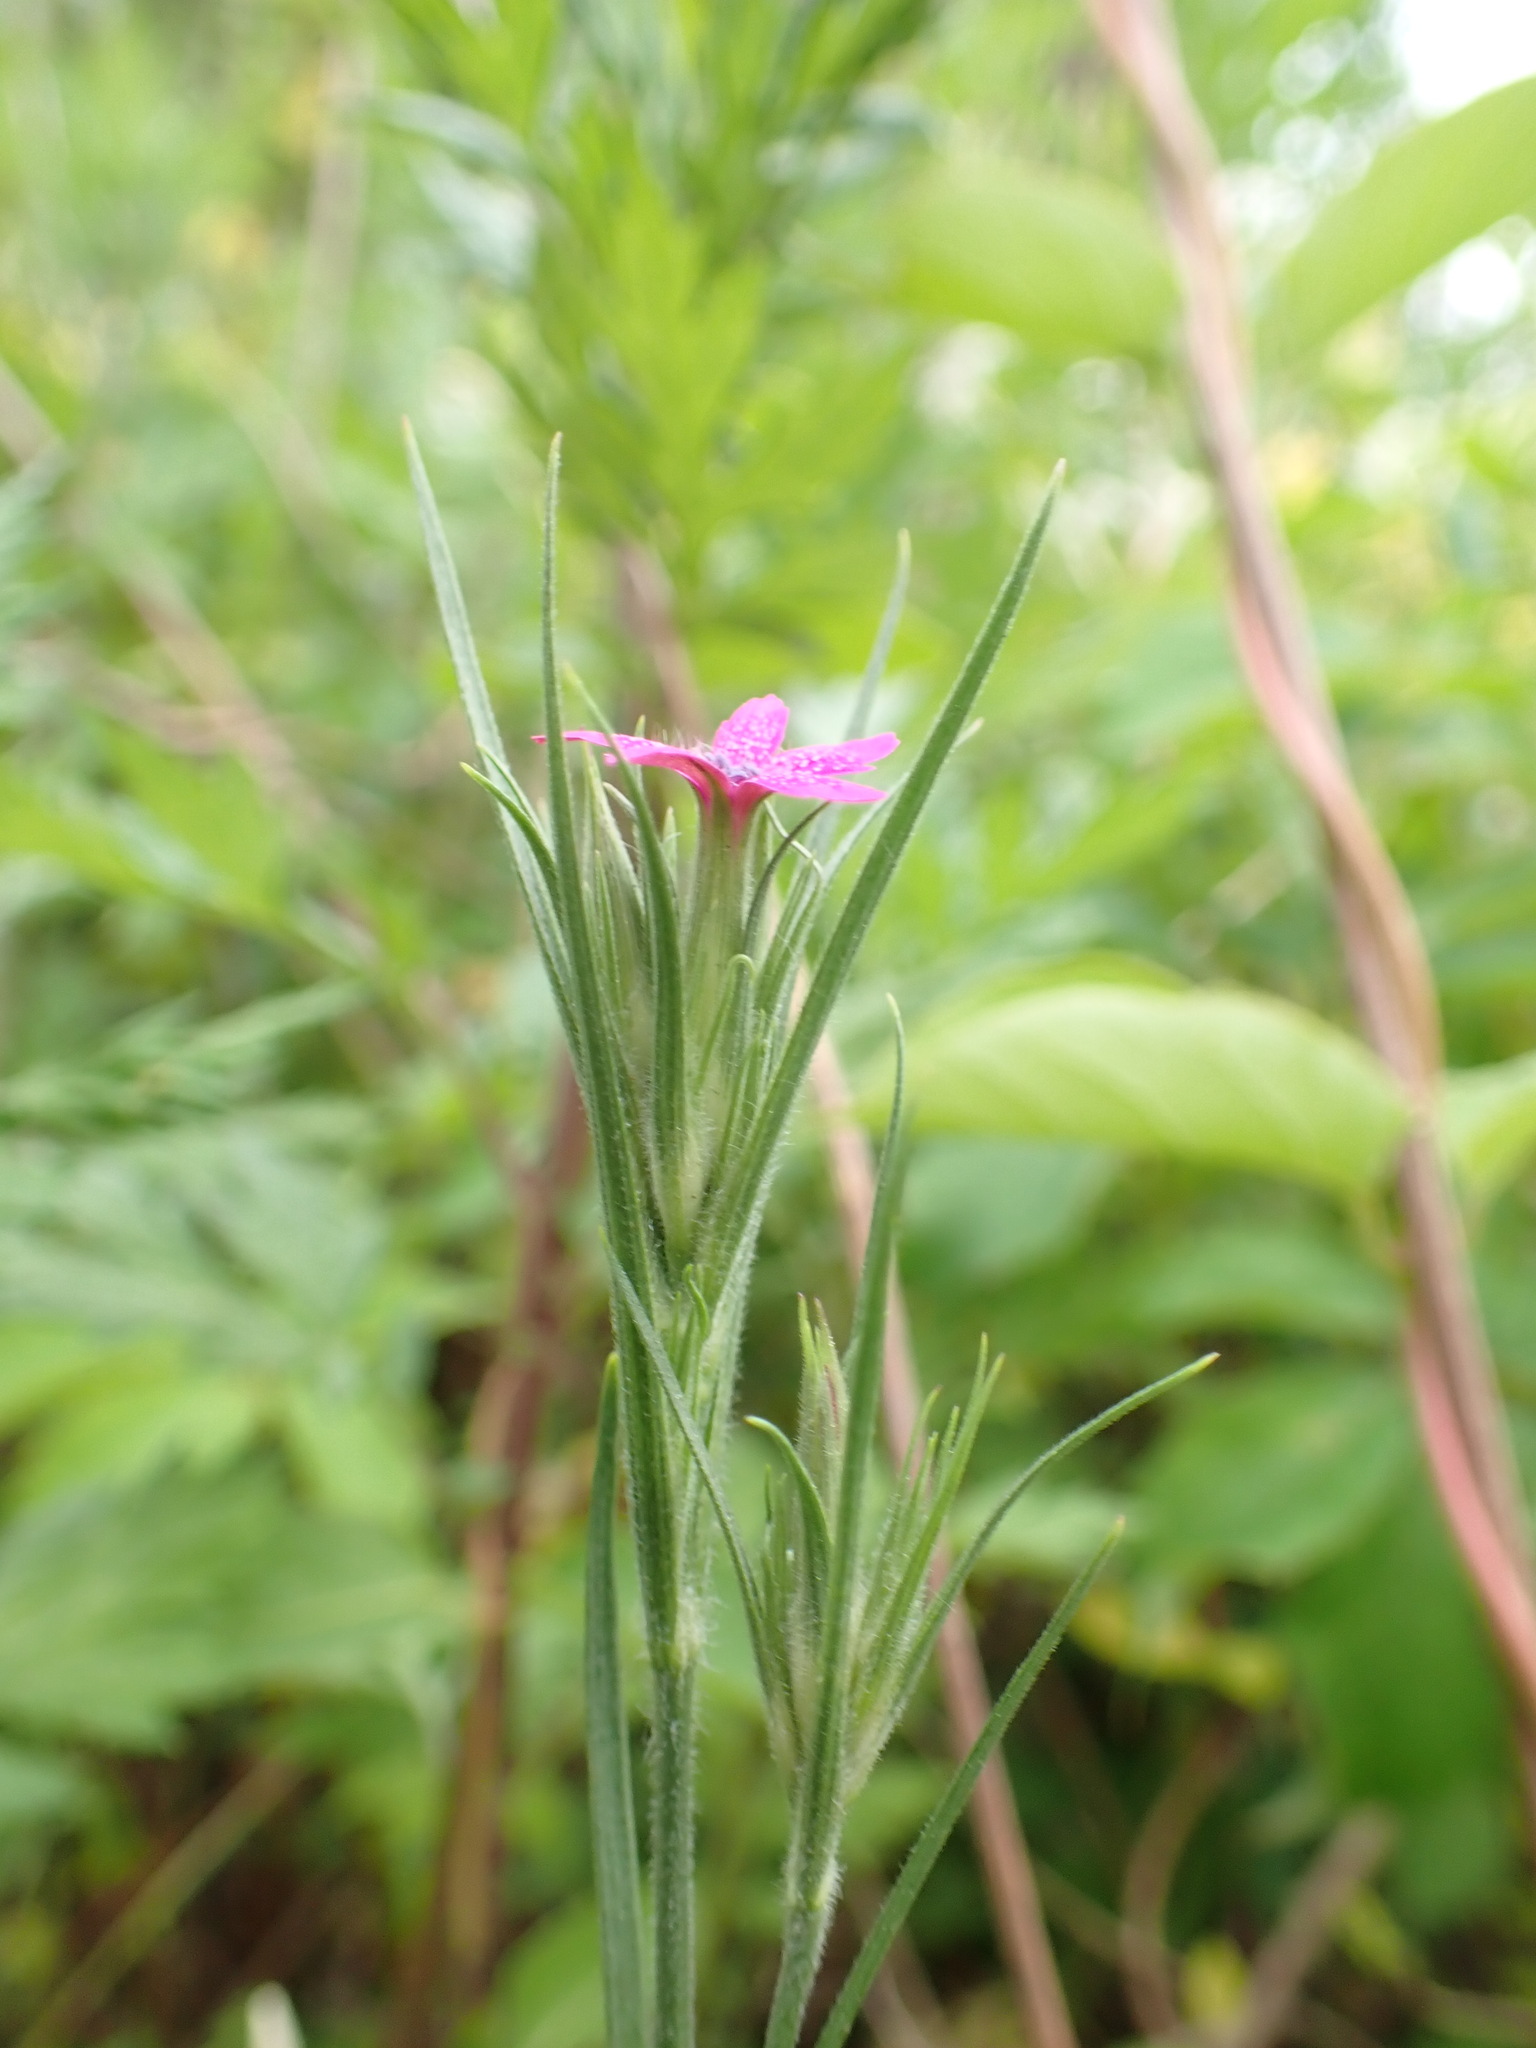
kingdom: Plantae
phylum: Tracheophyta
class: Magnoliopsida
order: Caryophyllales
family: Caryophyllaceae
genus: Dianthus
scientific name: Dianthus armeria
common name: Deptford pink
